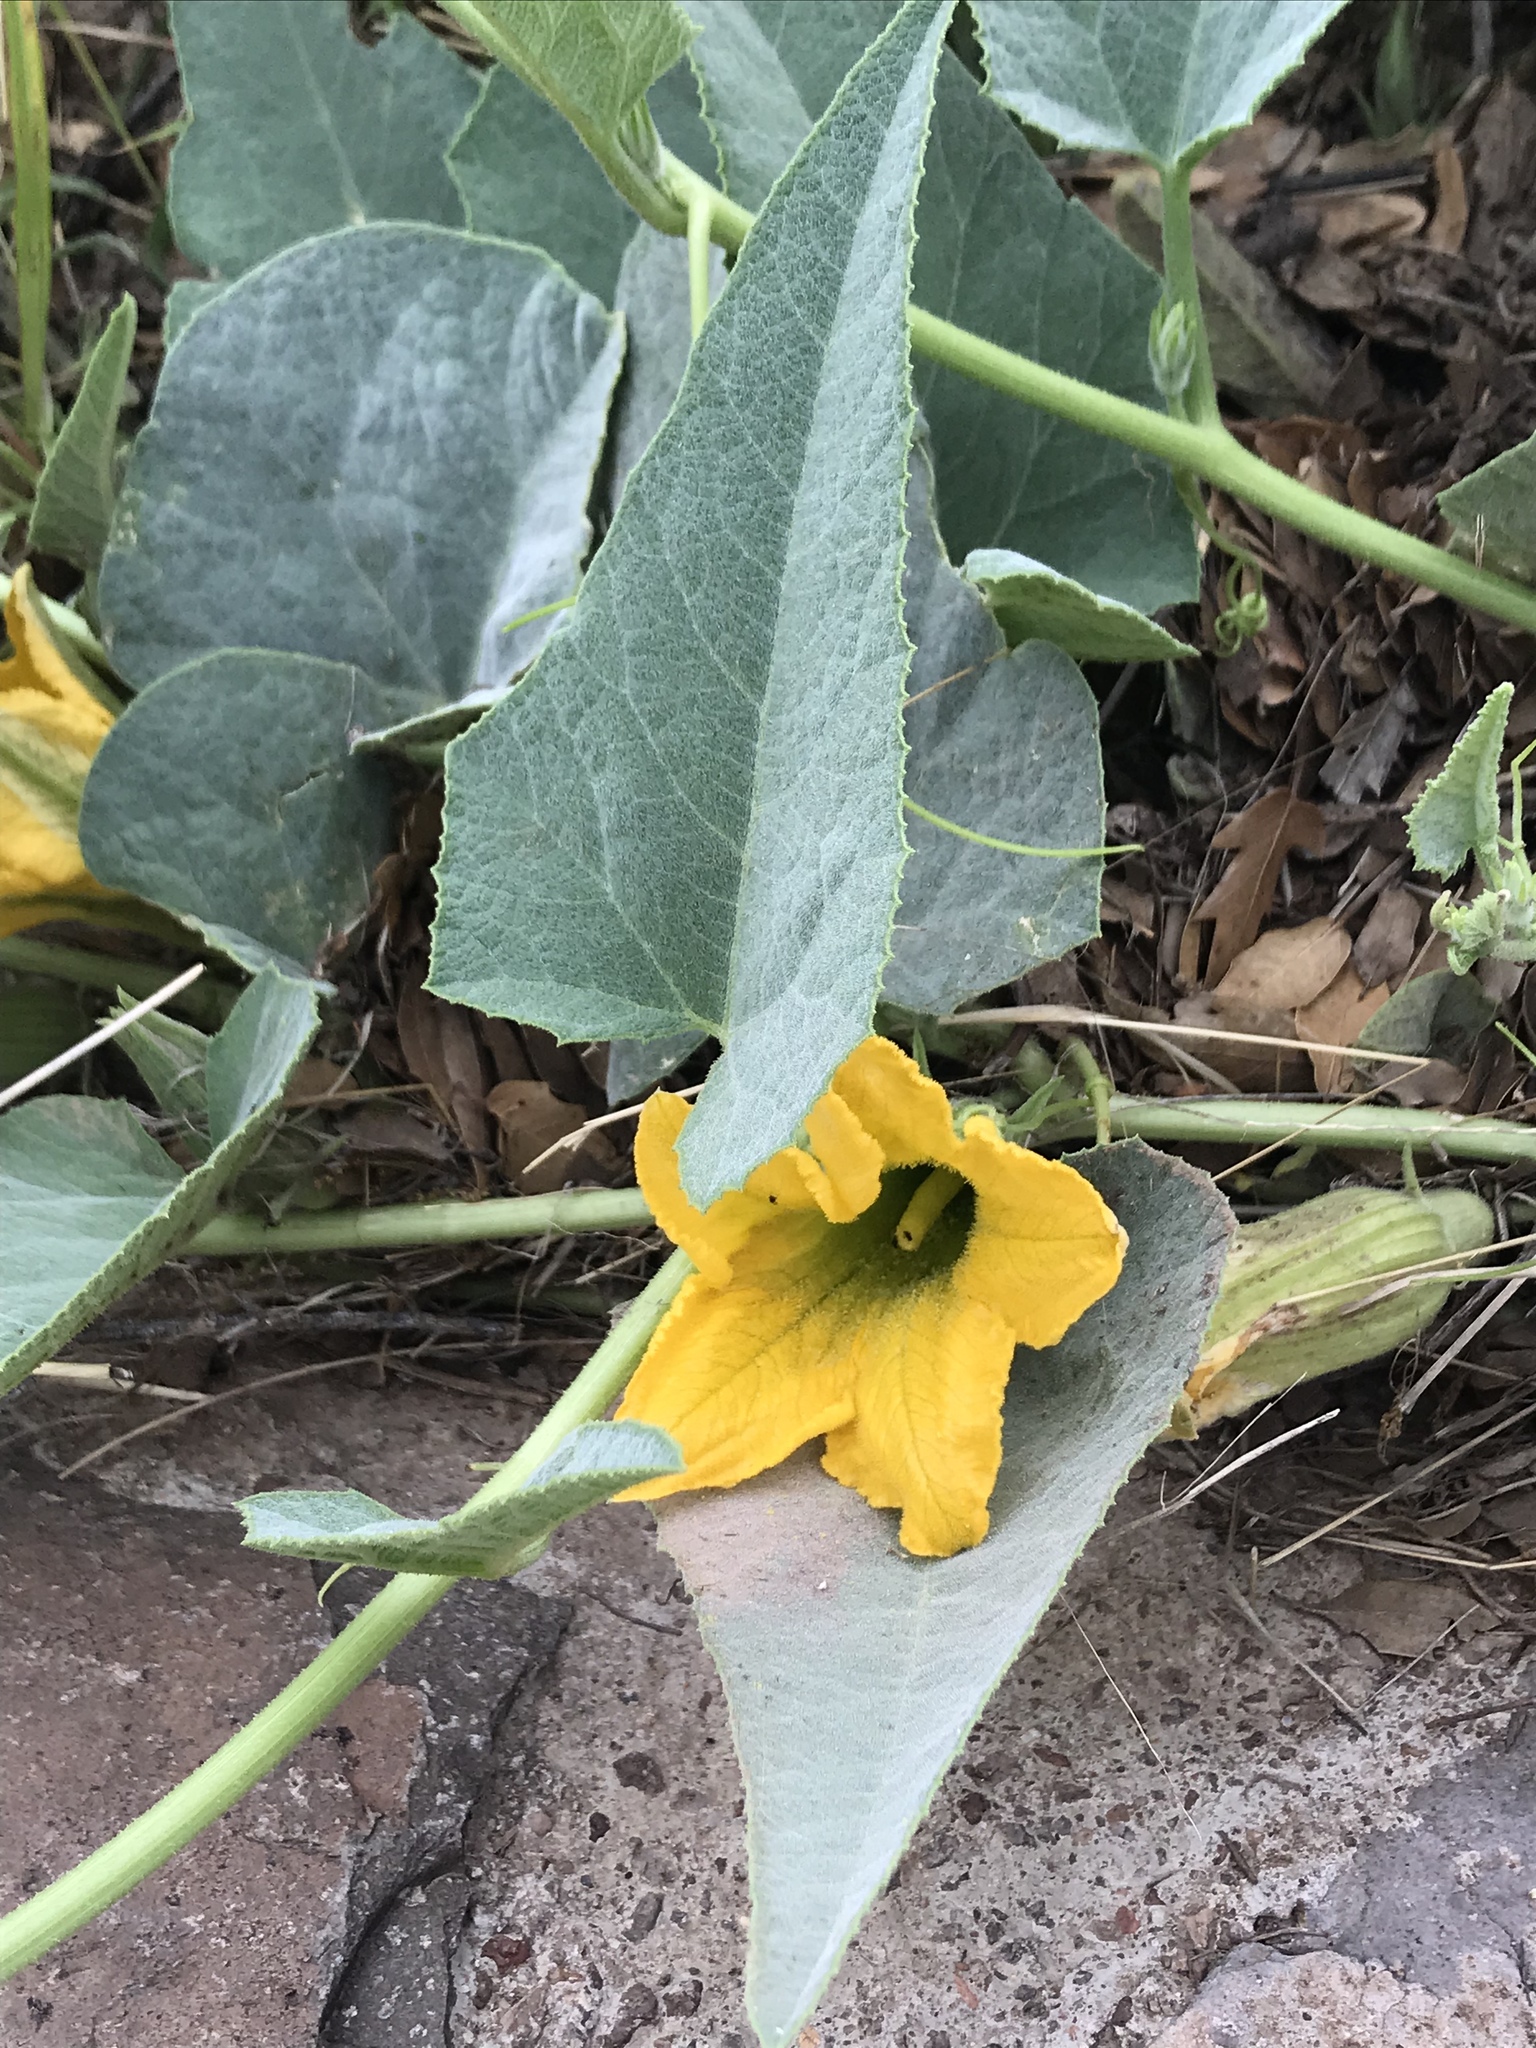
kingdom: Plantae
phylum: Tracheophyta
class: Magnoliopsida
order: Cucurbitales
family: Cucurbitaceae
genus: Cucurbita
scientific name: Cucurbita foetidissima
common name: Buffalo gourd
